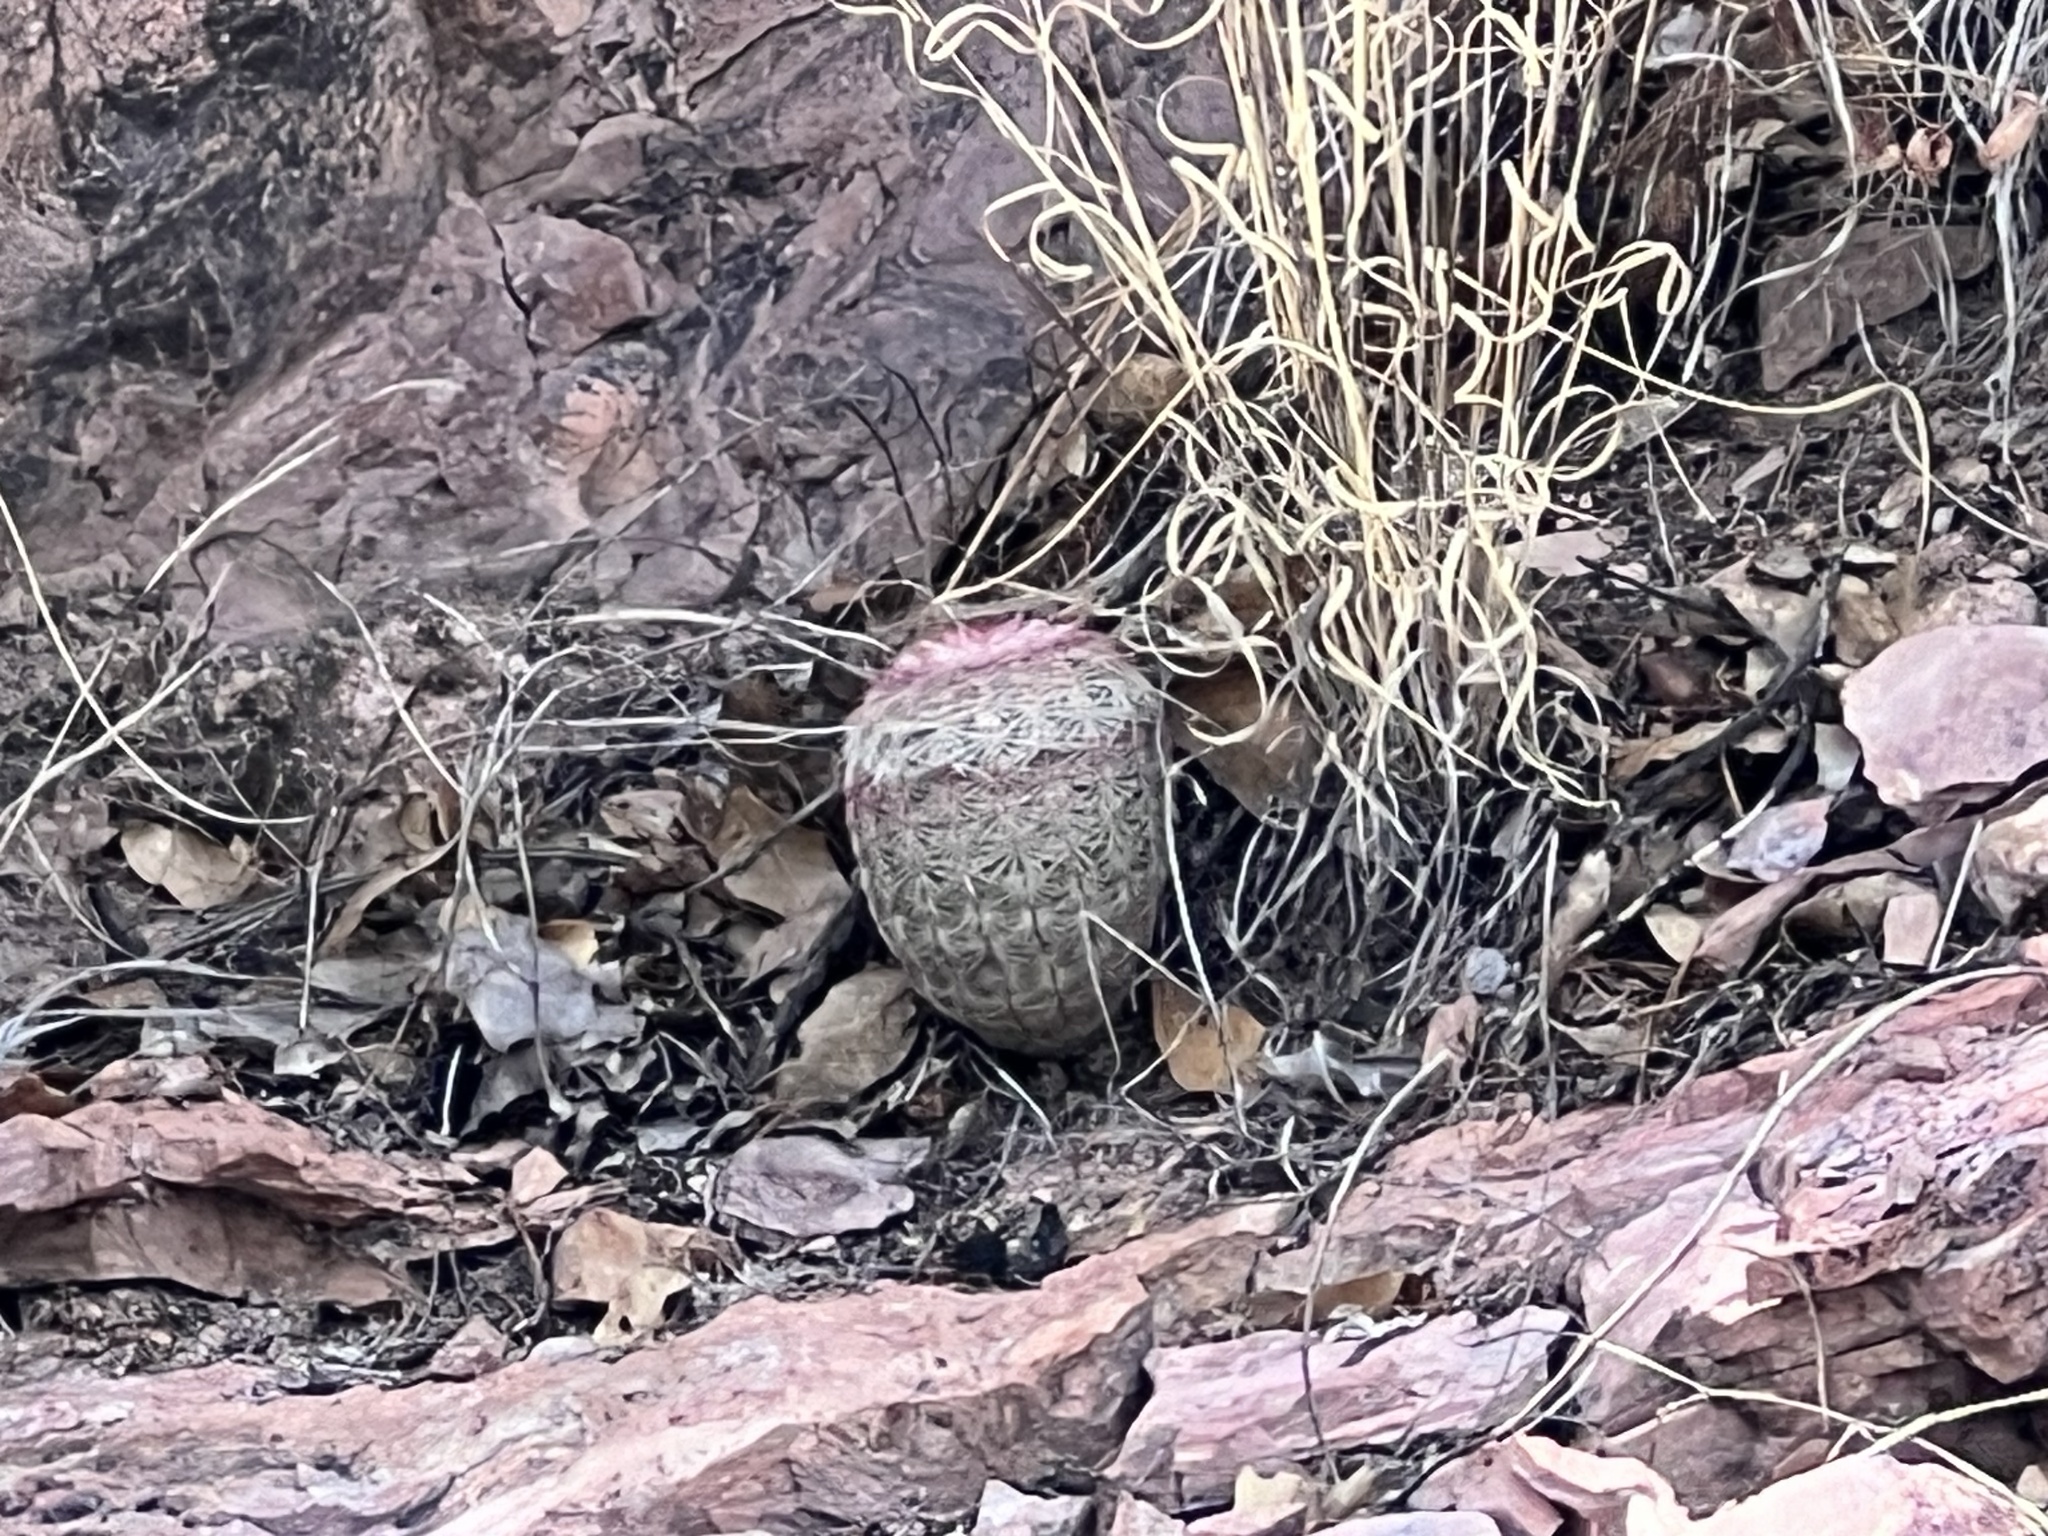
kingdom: Plantae
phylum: Tracheophyta
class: Magnoliopsida
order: Caryophyllales
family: Cactaceae
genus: Echinocereus
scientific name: Echinocereus rigidissimus
